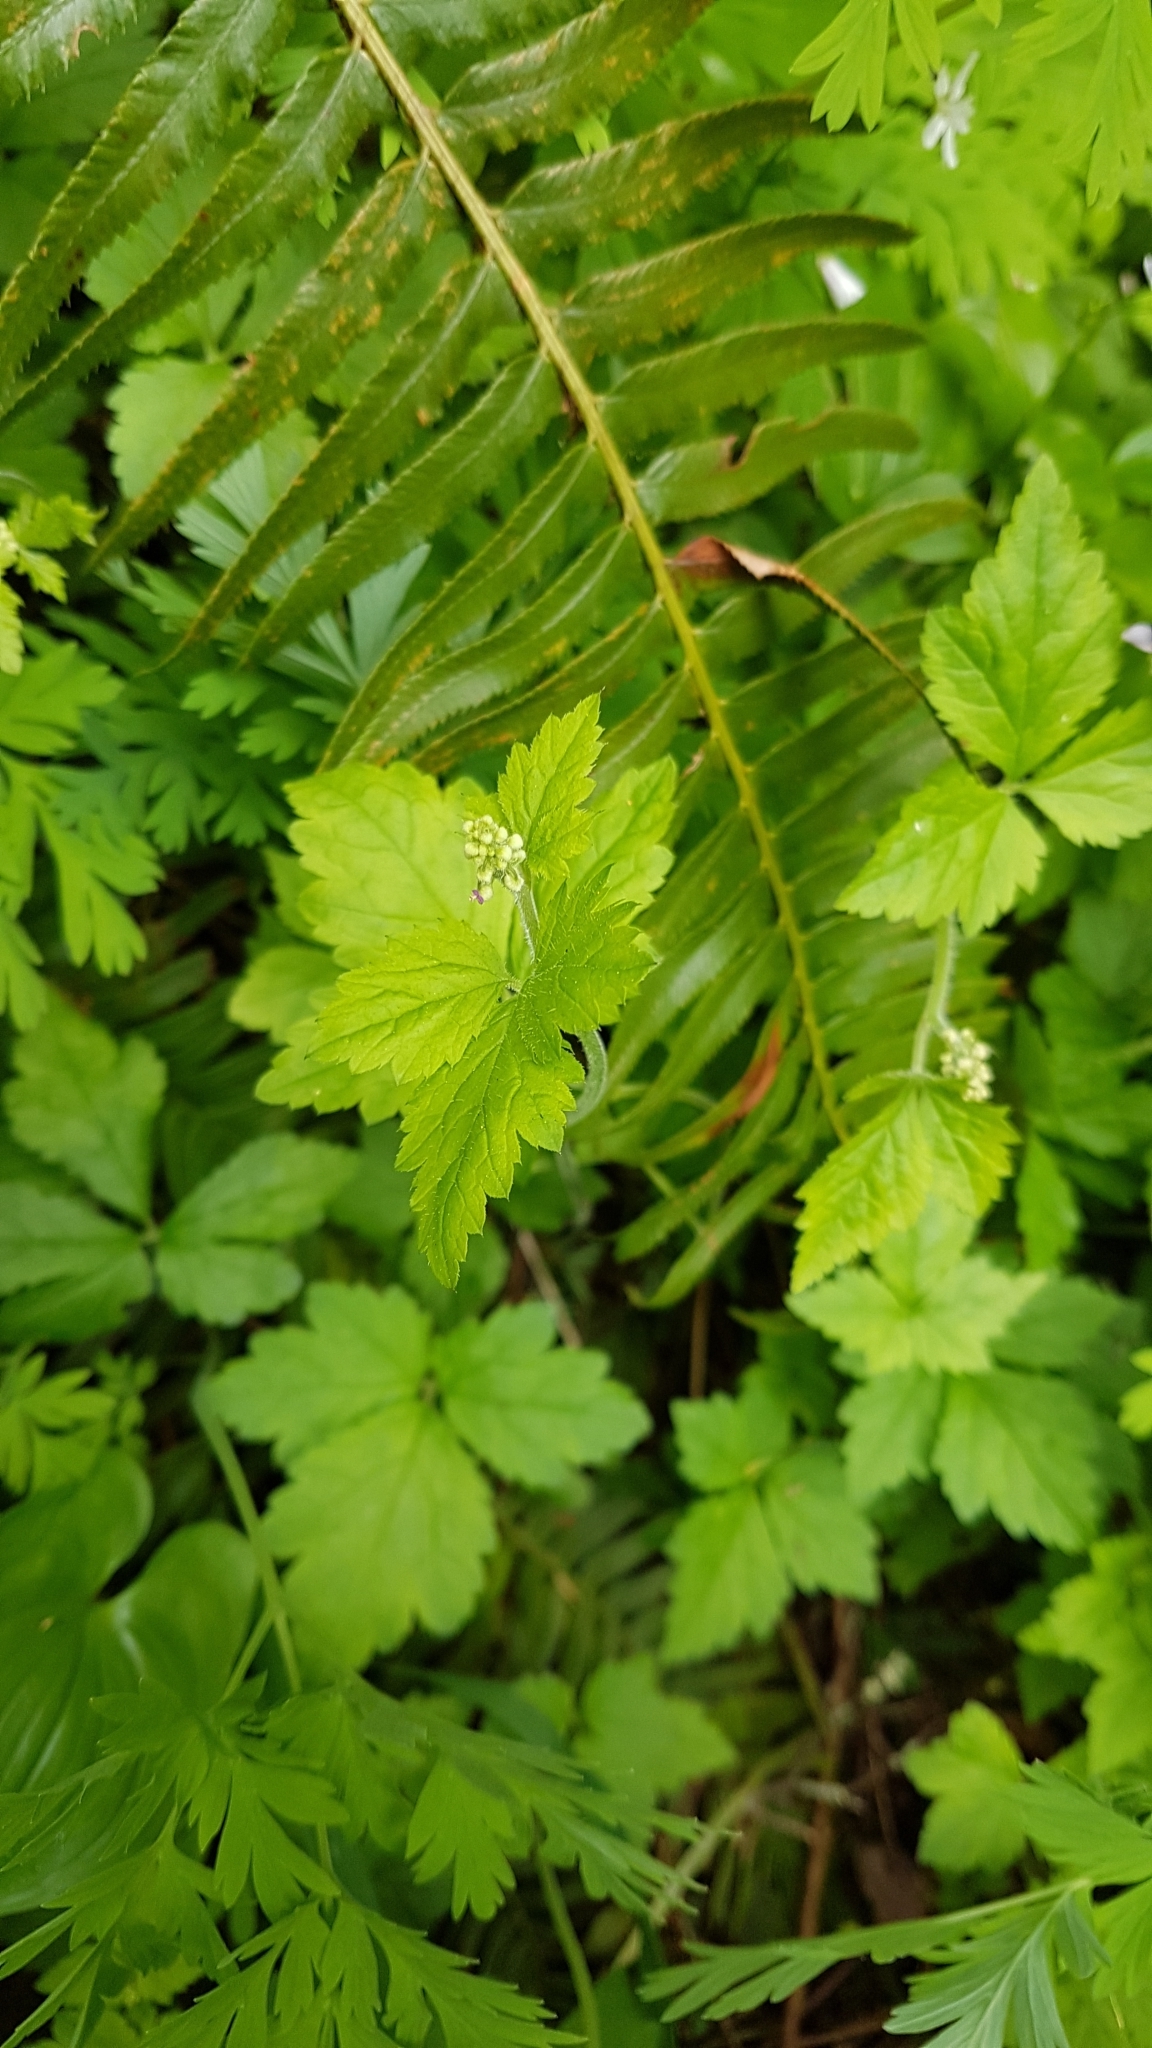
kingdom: Plantae
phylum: Tracheophyta
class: Magnoliopsida
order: Saxifragales
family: Saxifragaceae
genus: Tiarella
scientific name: Tiarella trifoliata
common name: Sugar-scoop
